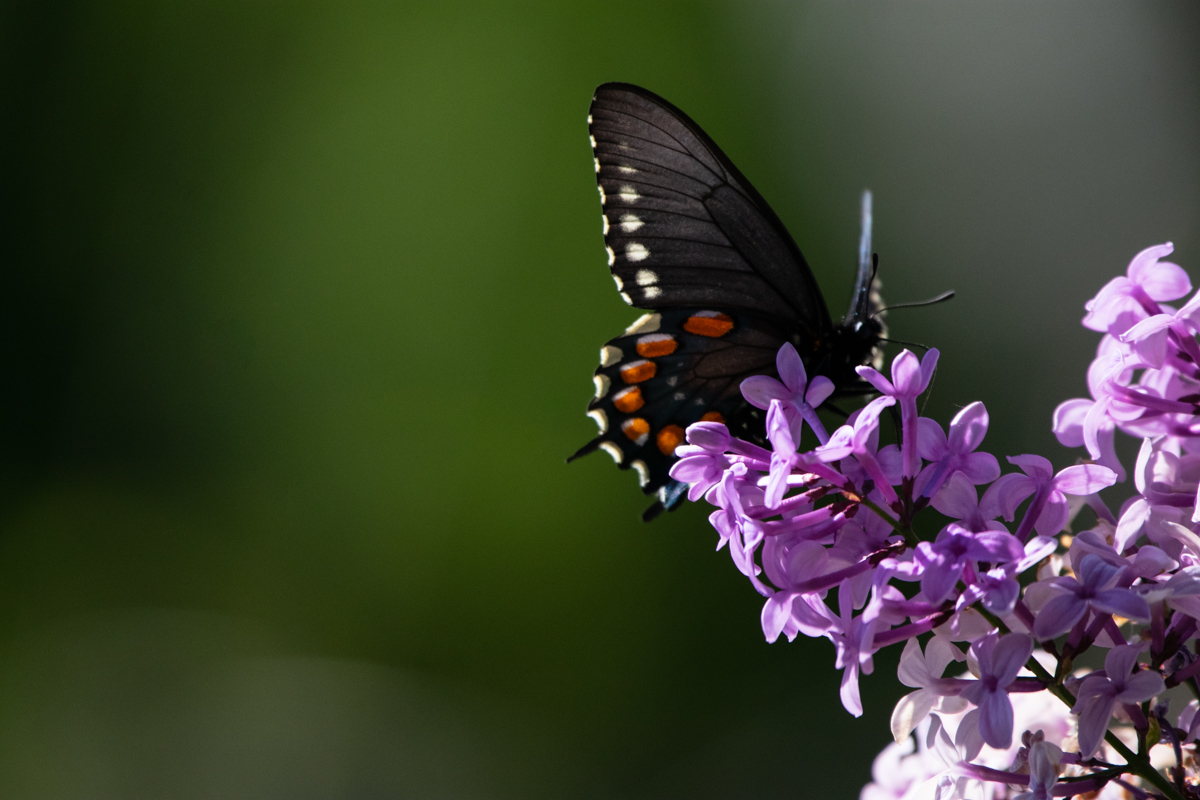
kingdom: Animalia
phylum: Arthropoda
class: Insecta
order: Lepidoptera
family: Papilionidae
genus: Battus
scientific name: Battus philenor
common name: Pipevine swallowtail
